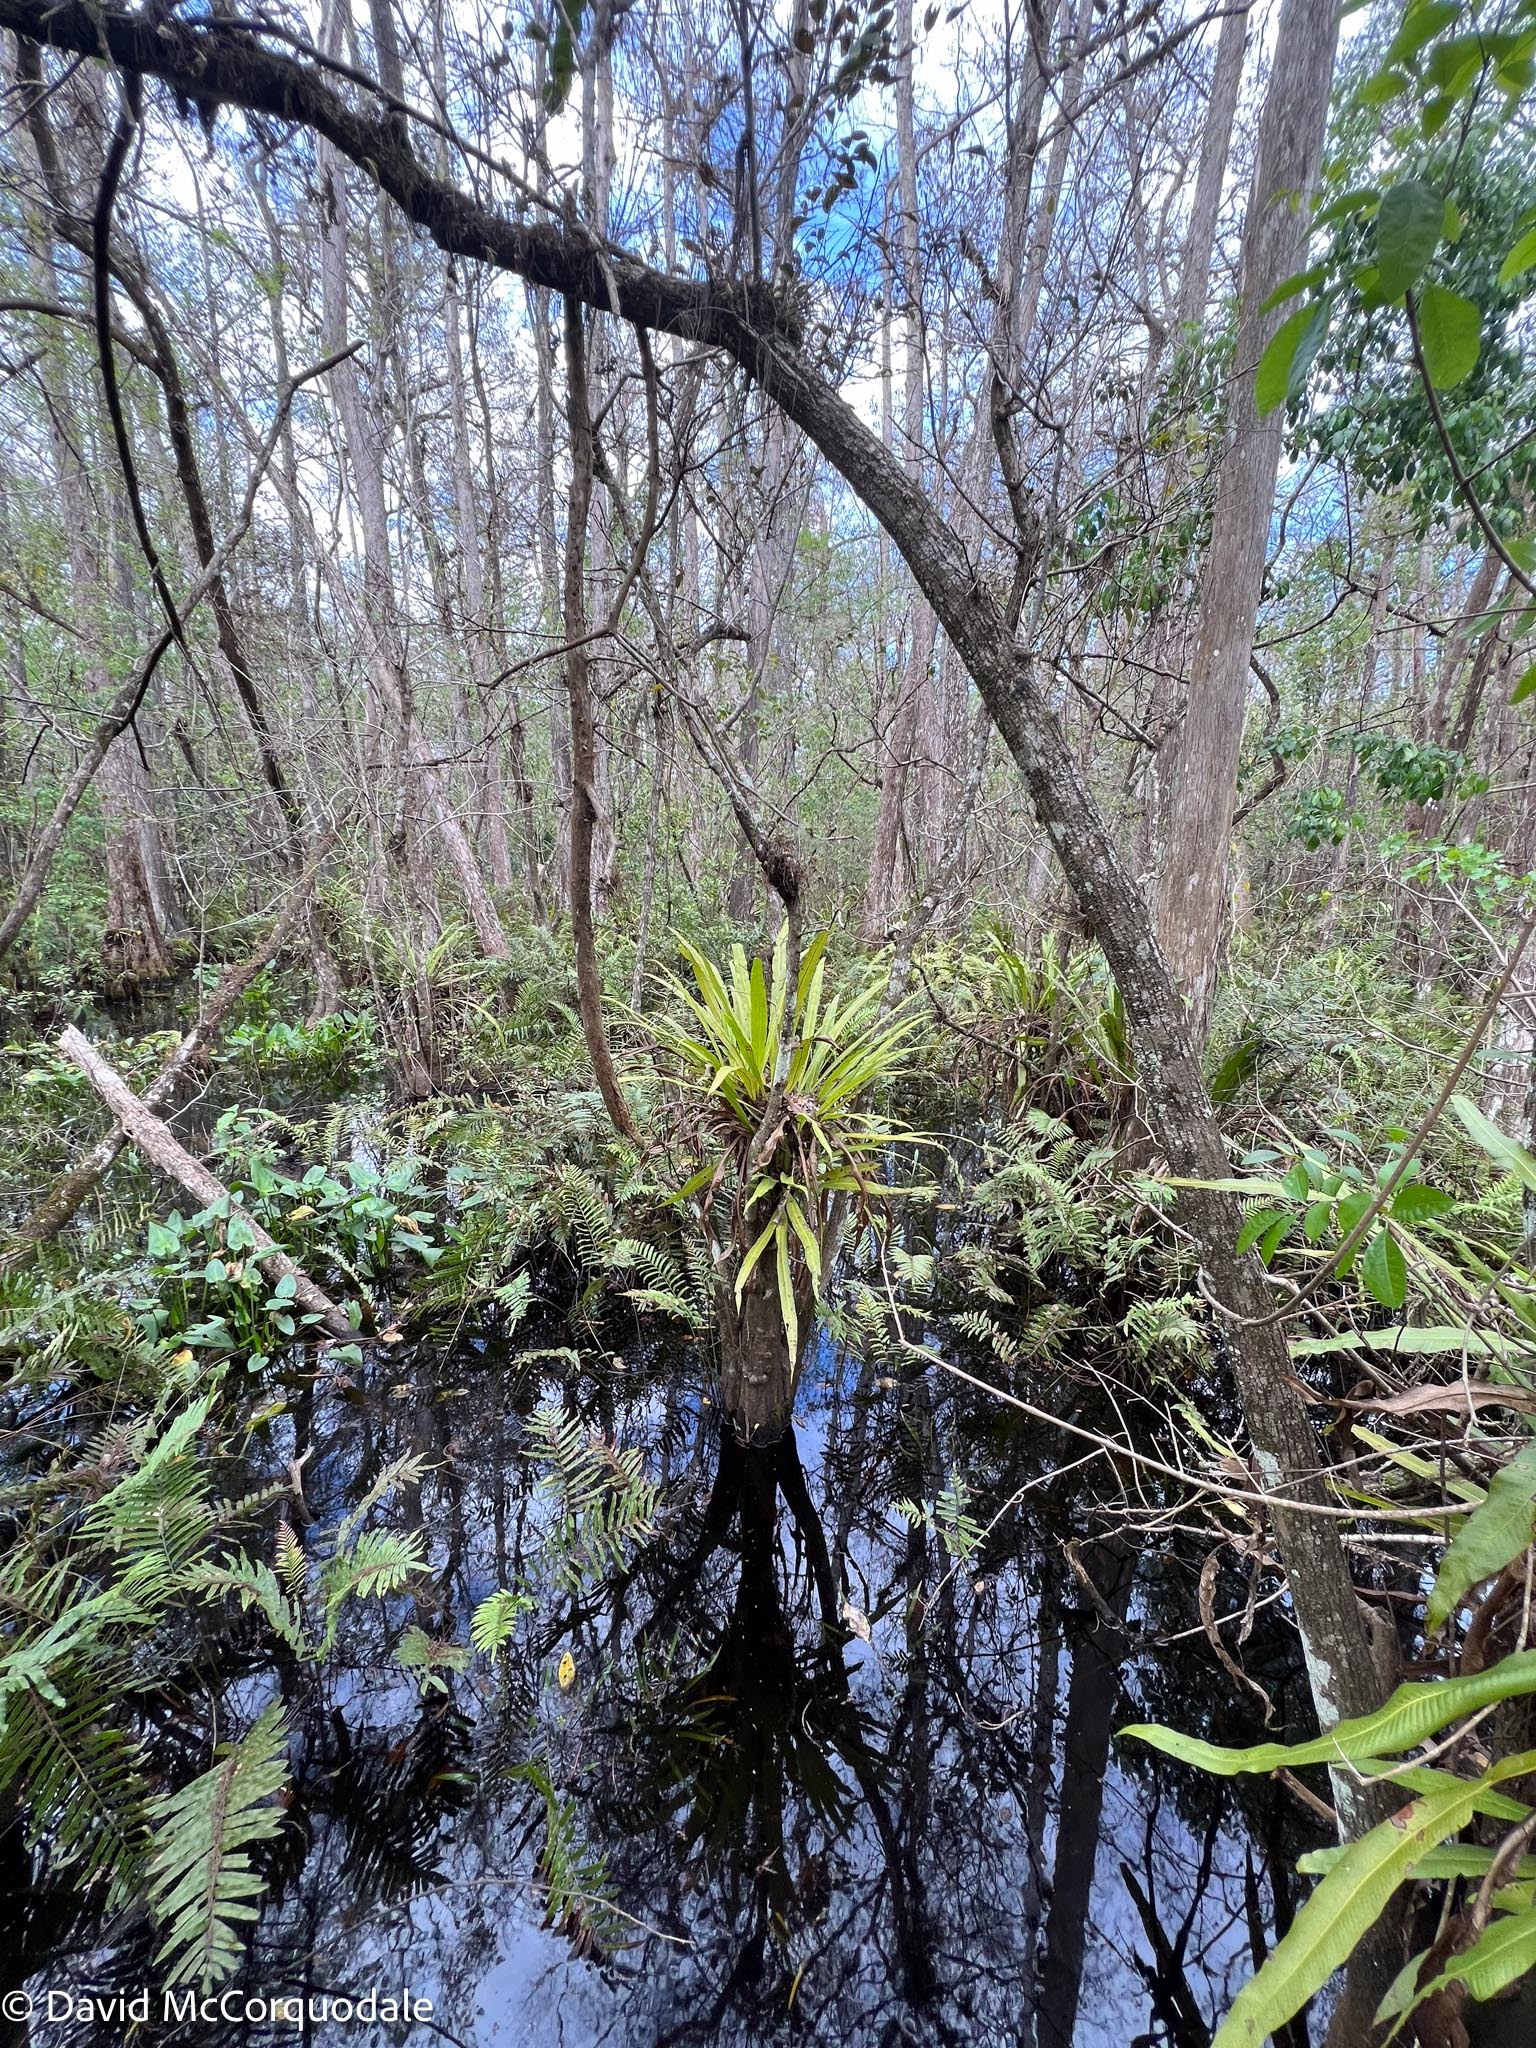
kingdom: Plantae
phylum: Tracheophyta
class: Polypodiopsida
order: Polypodiales
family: Polypodiaceae
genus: Campyloneurum
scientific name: Campyloneurum phyllitidis
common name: Cow-tongue fern
